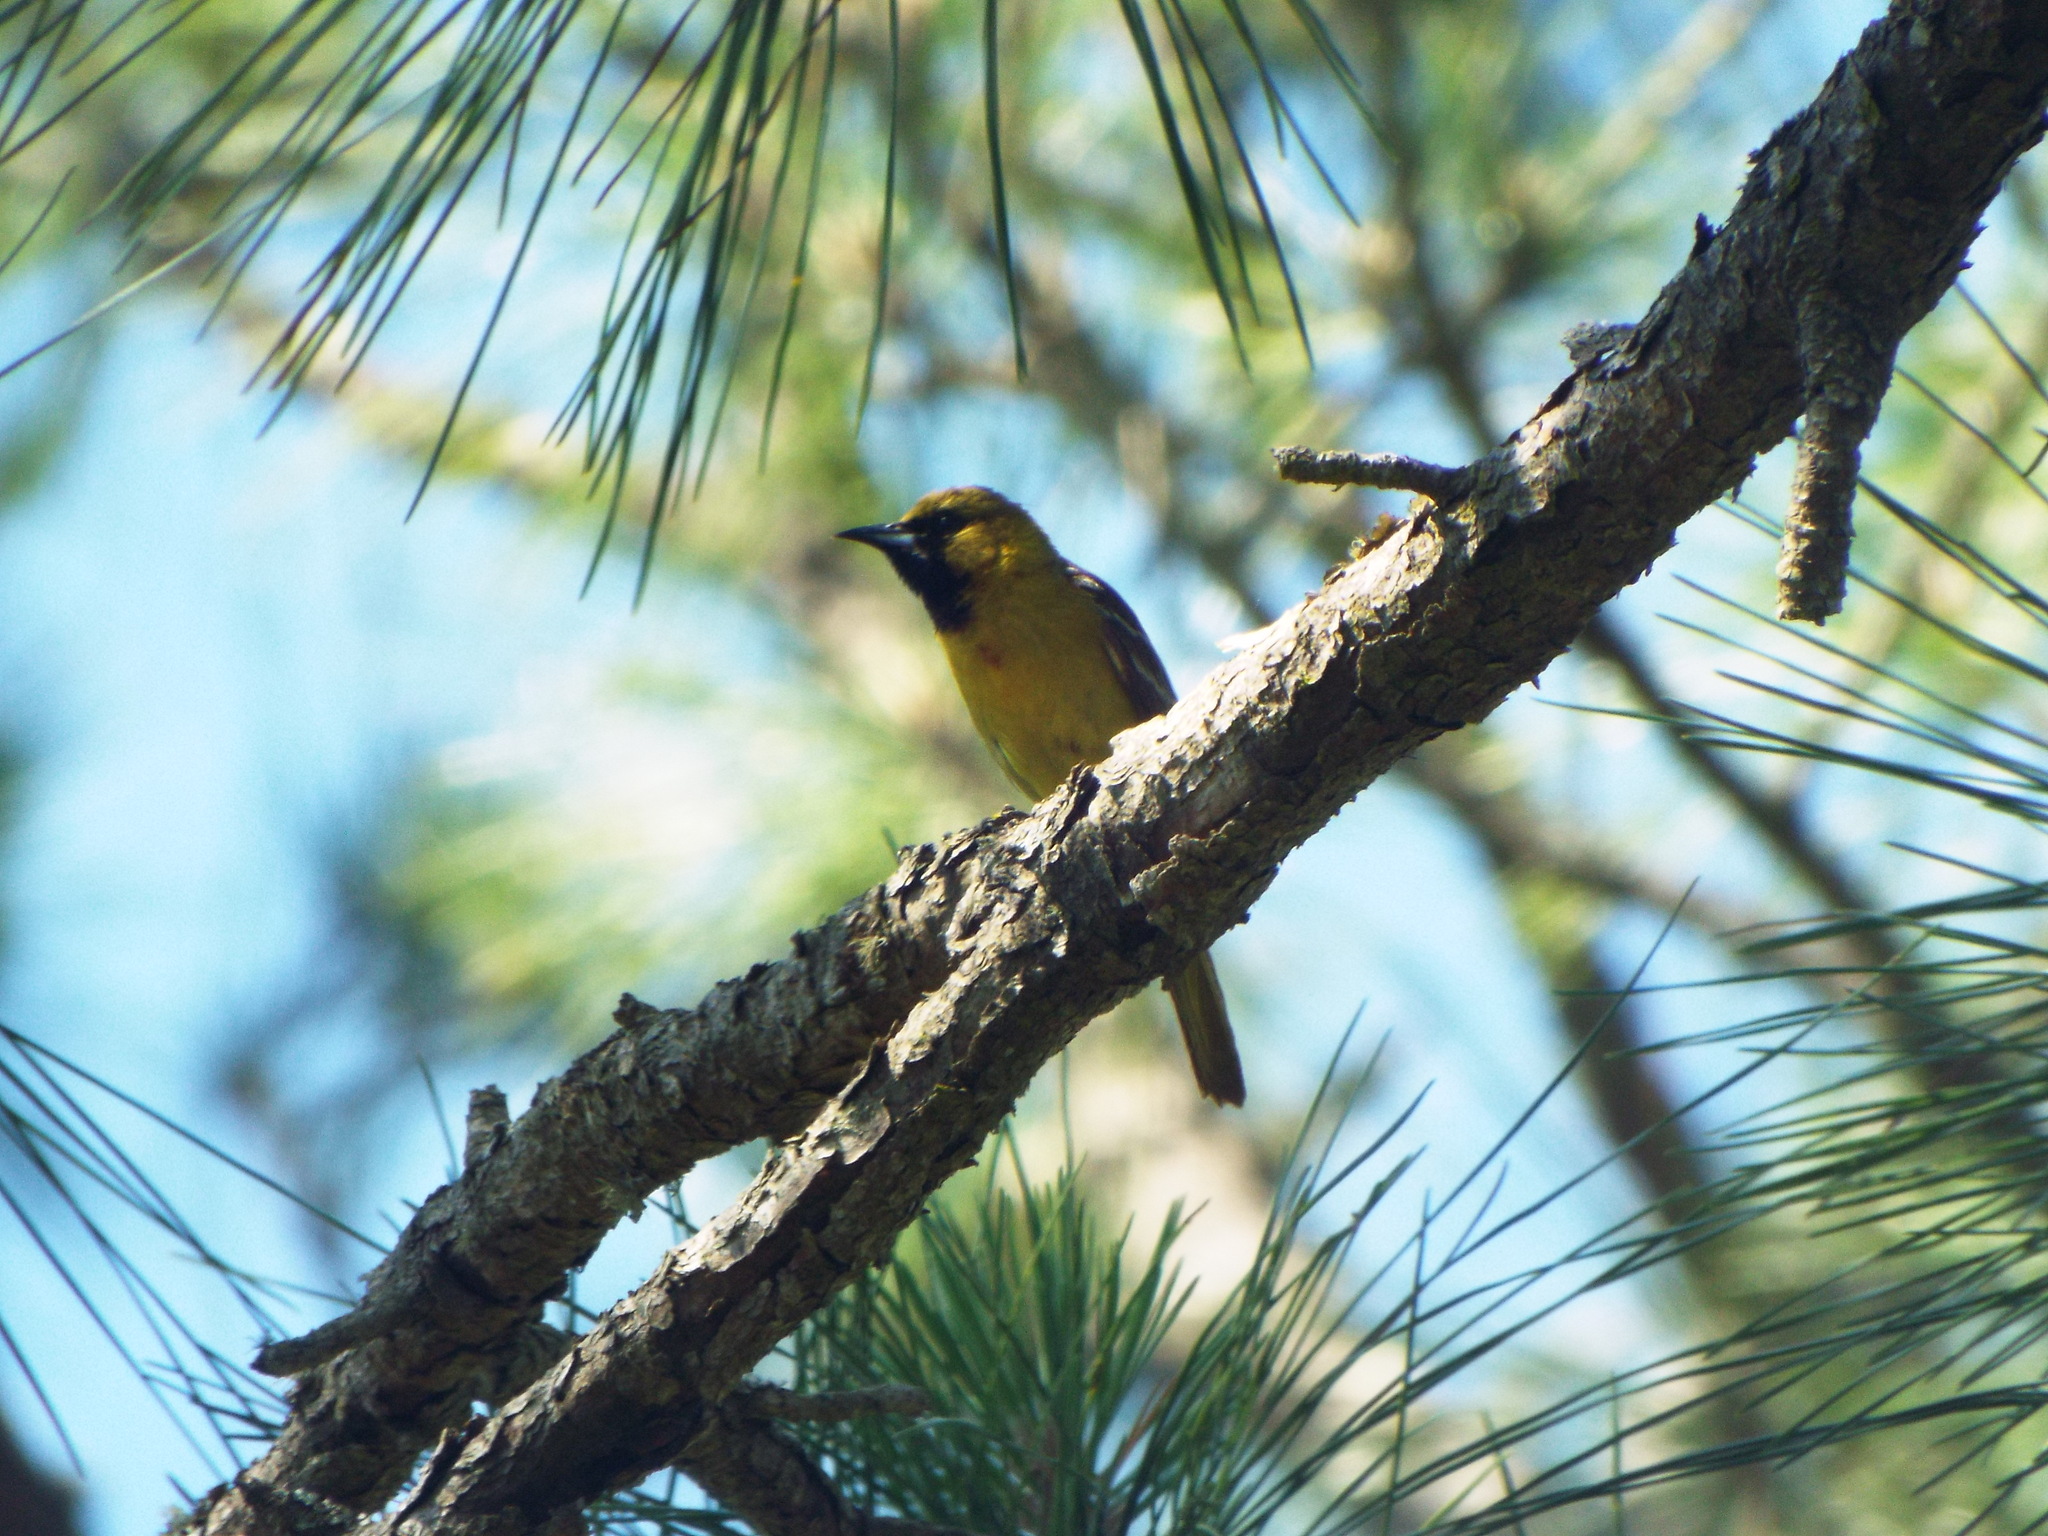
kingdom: Animalia
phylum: Chordata
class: Aves
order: Passeriformes
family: Icteridae
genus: Icterus
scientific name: Icterus spurius
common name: Orchard oriole
